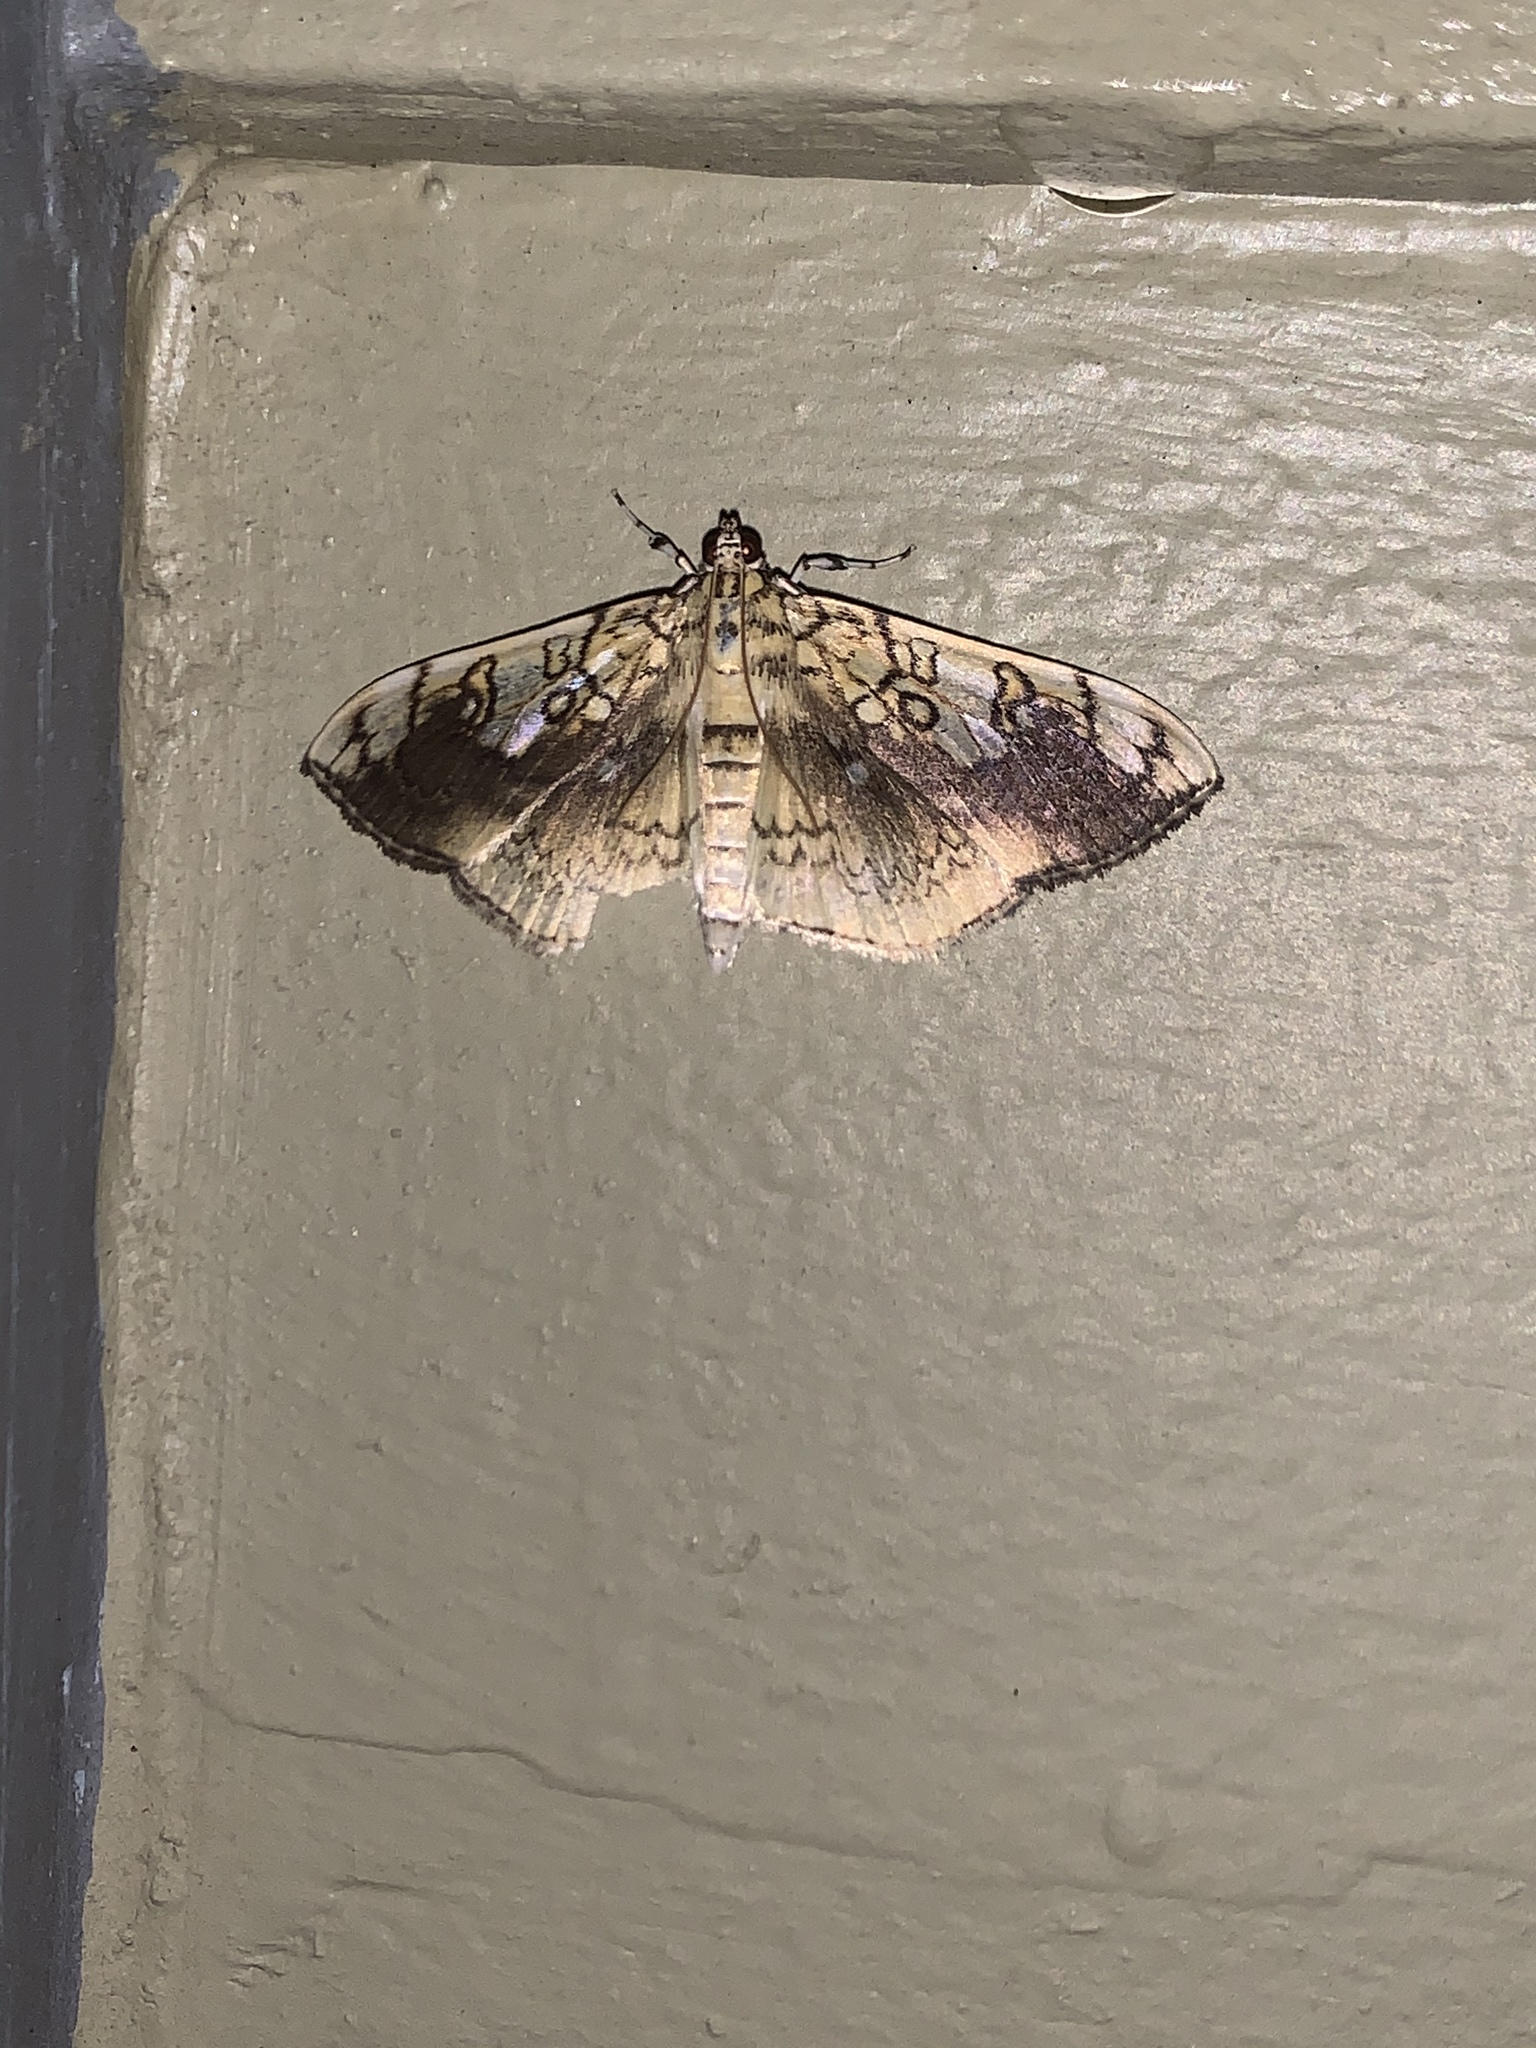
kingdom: Animalia
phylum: Arthropoda
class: Insecta
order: Lepidoptera
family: Crambidae
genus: Pantographa
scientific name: Pantographa limata
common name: Basswood leafroller moth
